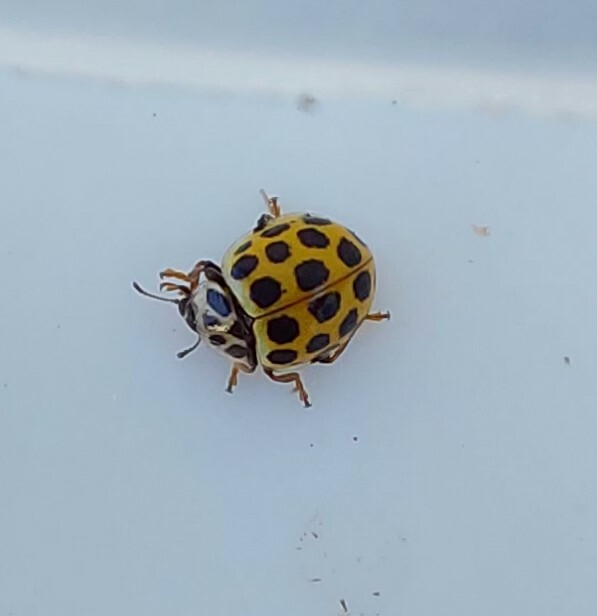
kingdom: Animalia
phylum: Arthropoda
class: Insecta
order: Coleoptera
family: Coccinellidae
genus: Psyllobora
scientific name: Psyllobora vigintiduopunctata
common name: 22-spot ladybird
